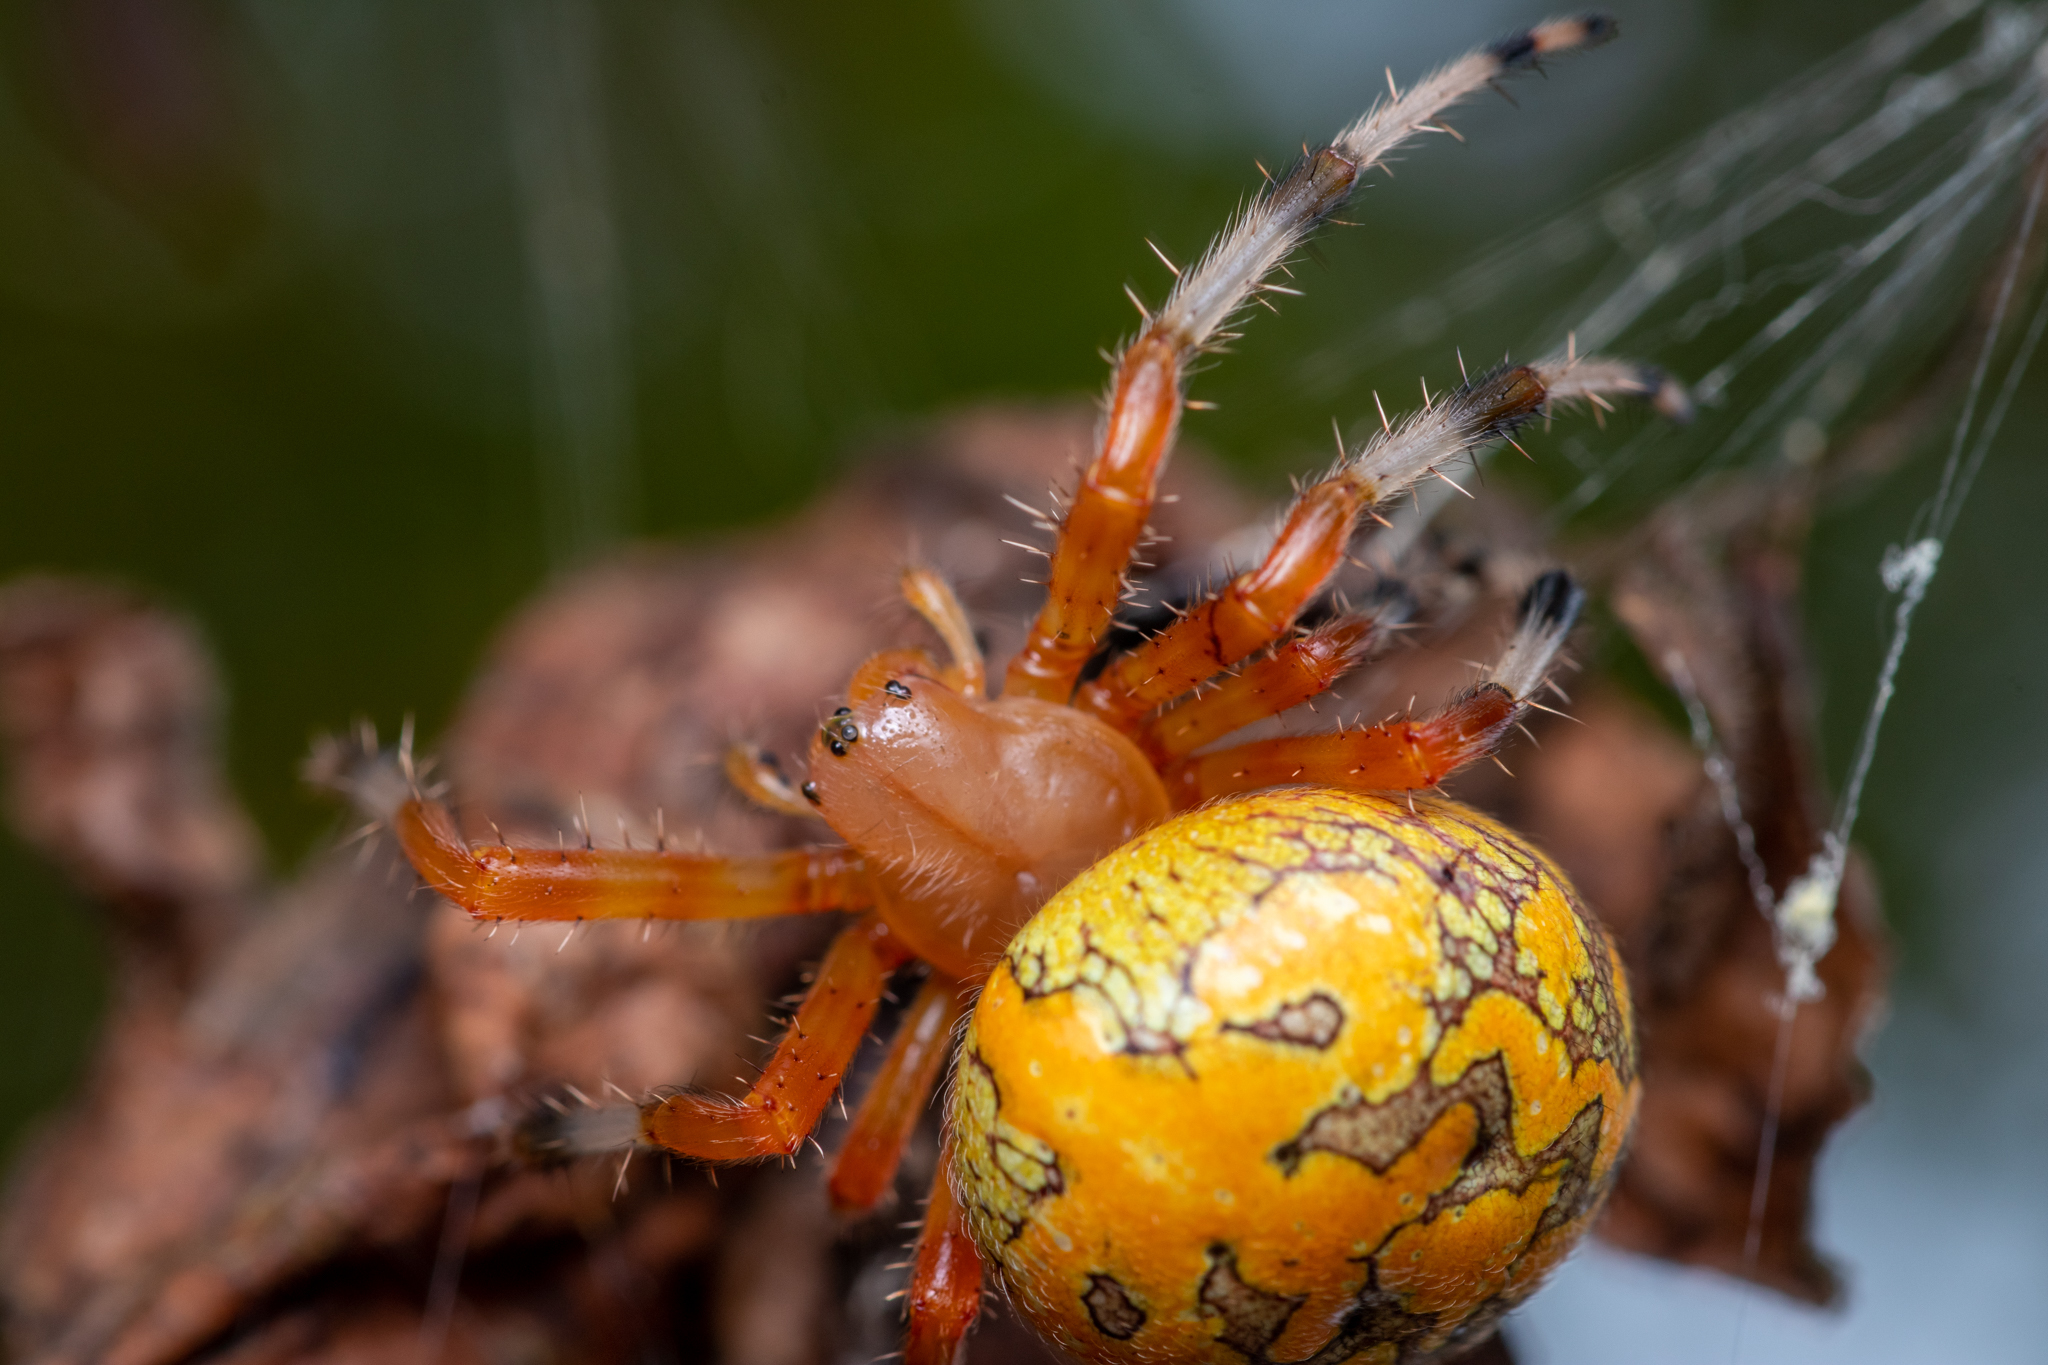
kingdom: Animalia
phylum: Arthropoda
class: Arachnida
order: Araneae
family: Araneidae
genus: Araneus
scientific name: Araneus marmoreus
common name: Marbled orbweaver
